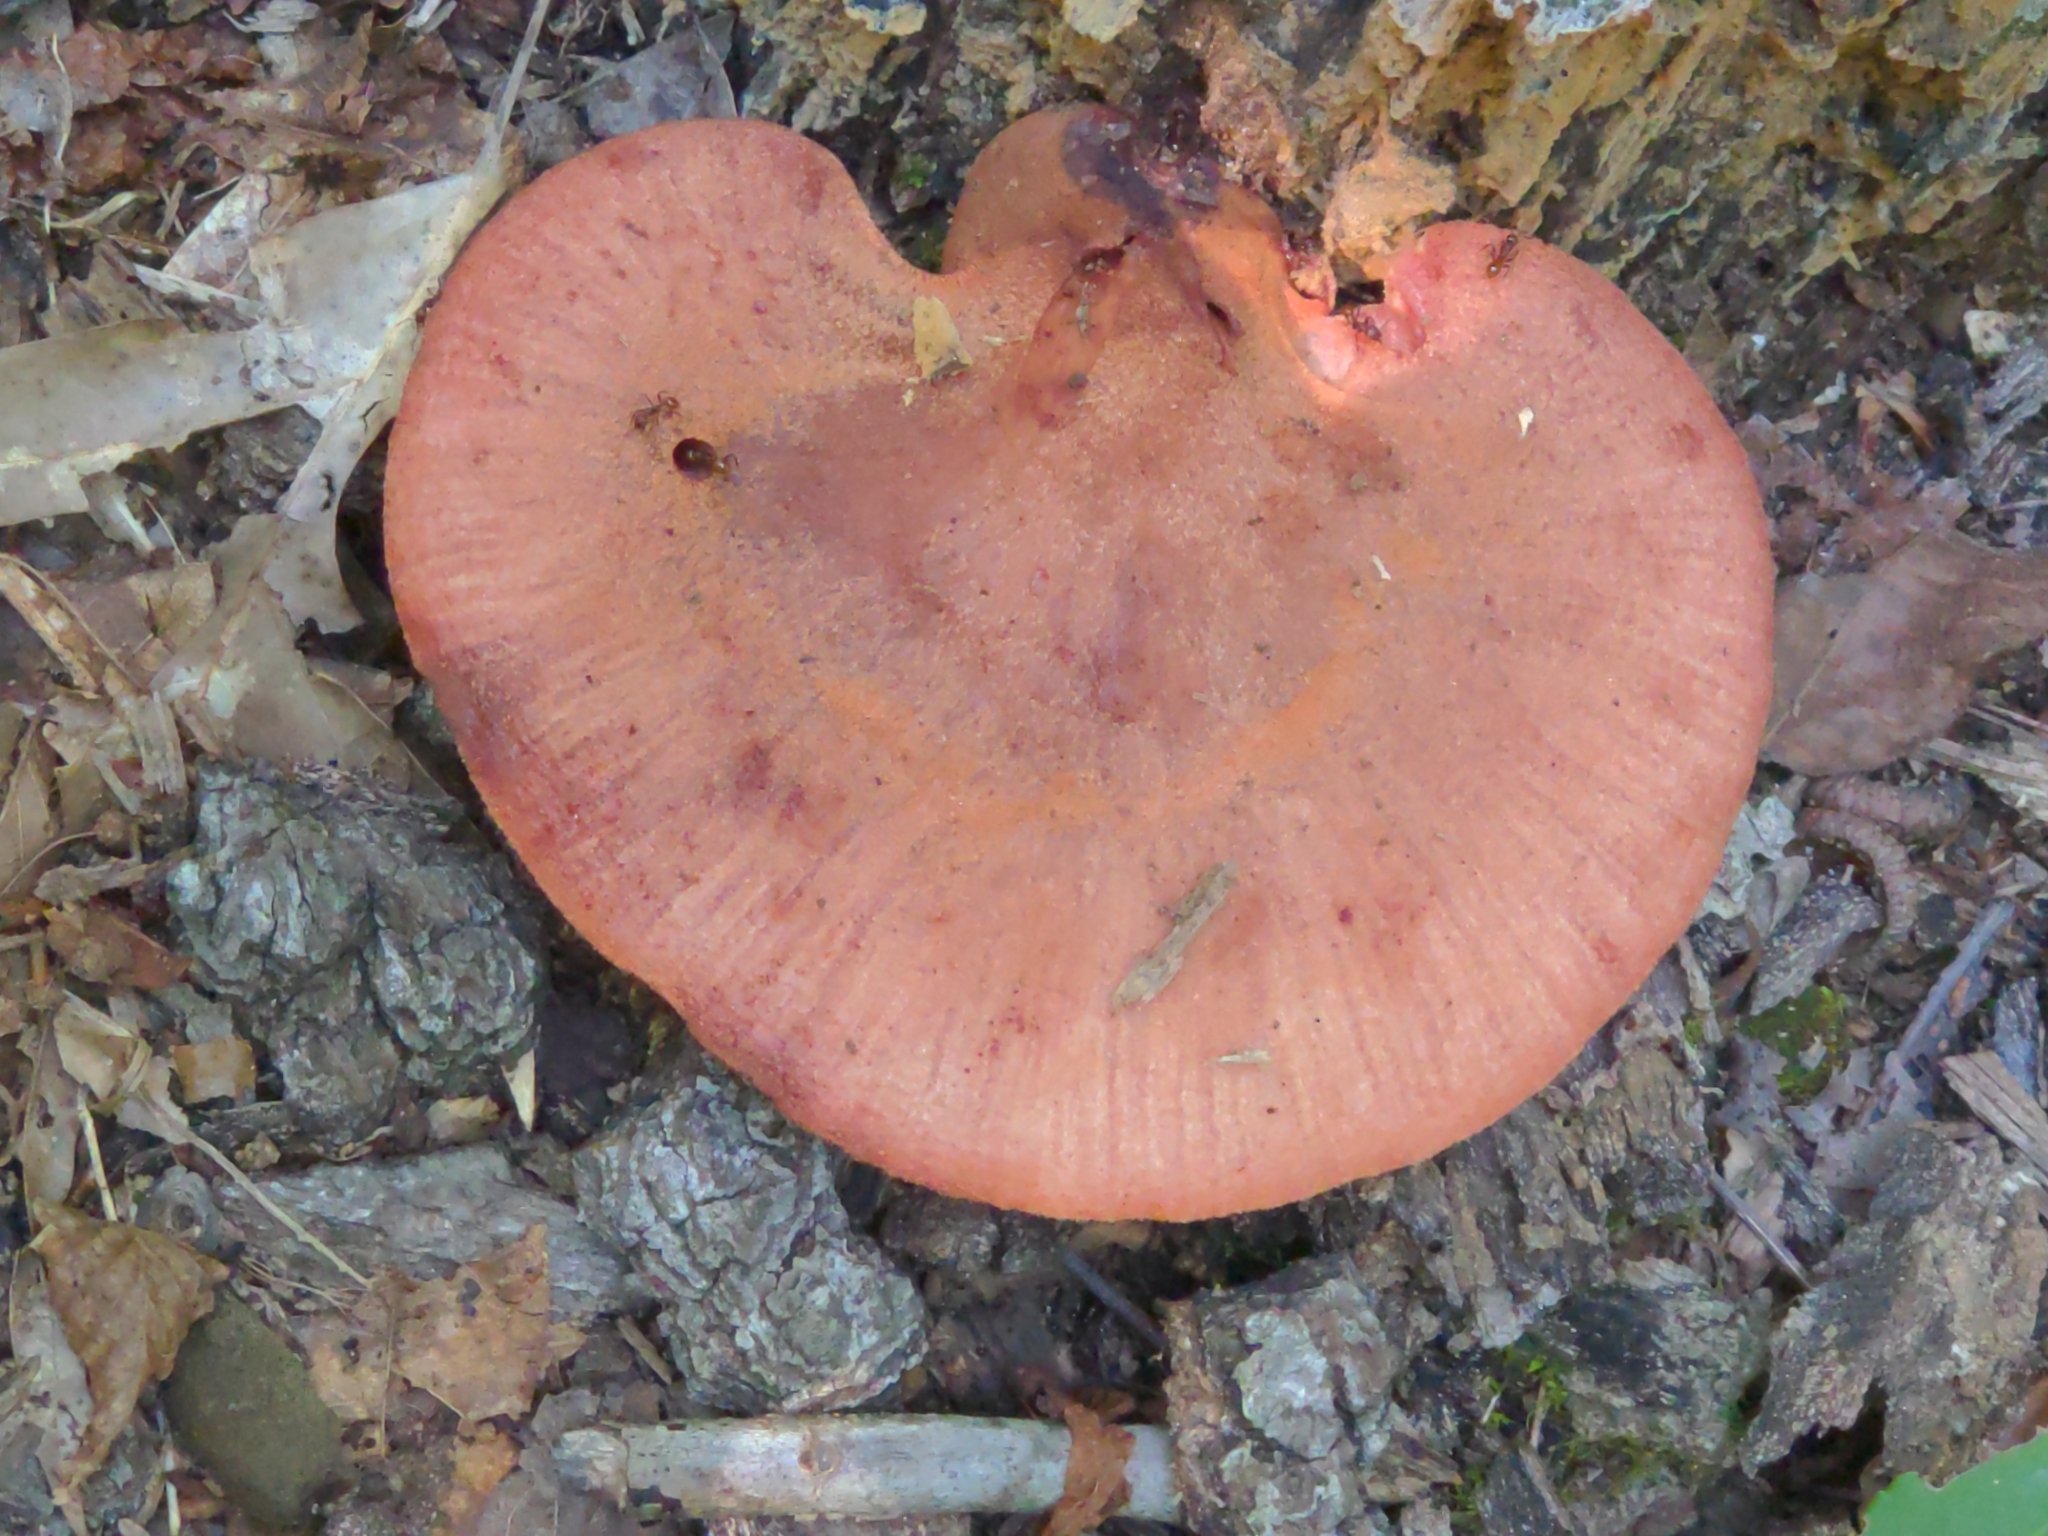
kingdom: Fungi
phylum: Basidiomycota
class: Agaricomycetes
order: Agaricales
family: Fistulinaceae
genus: Fistulina
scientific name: Fistulina hepatica
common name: Beef-steak fungus
